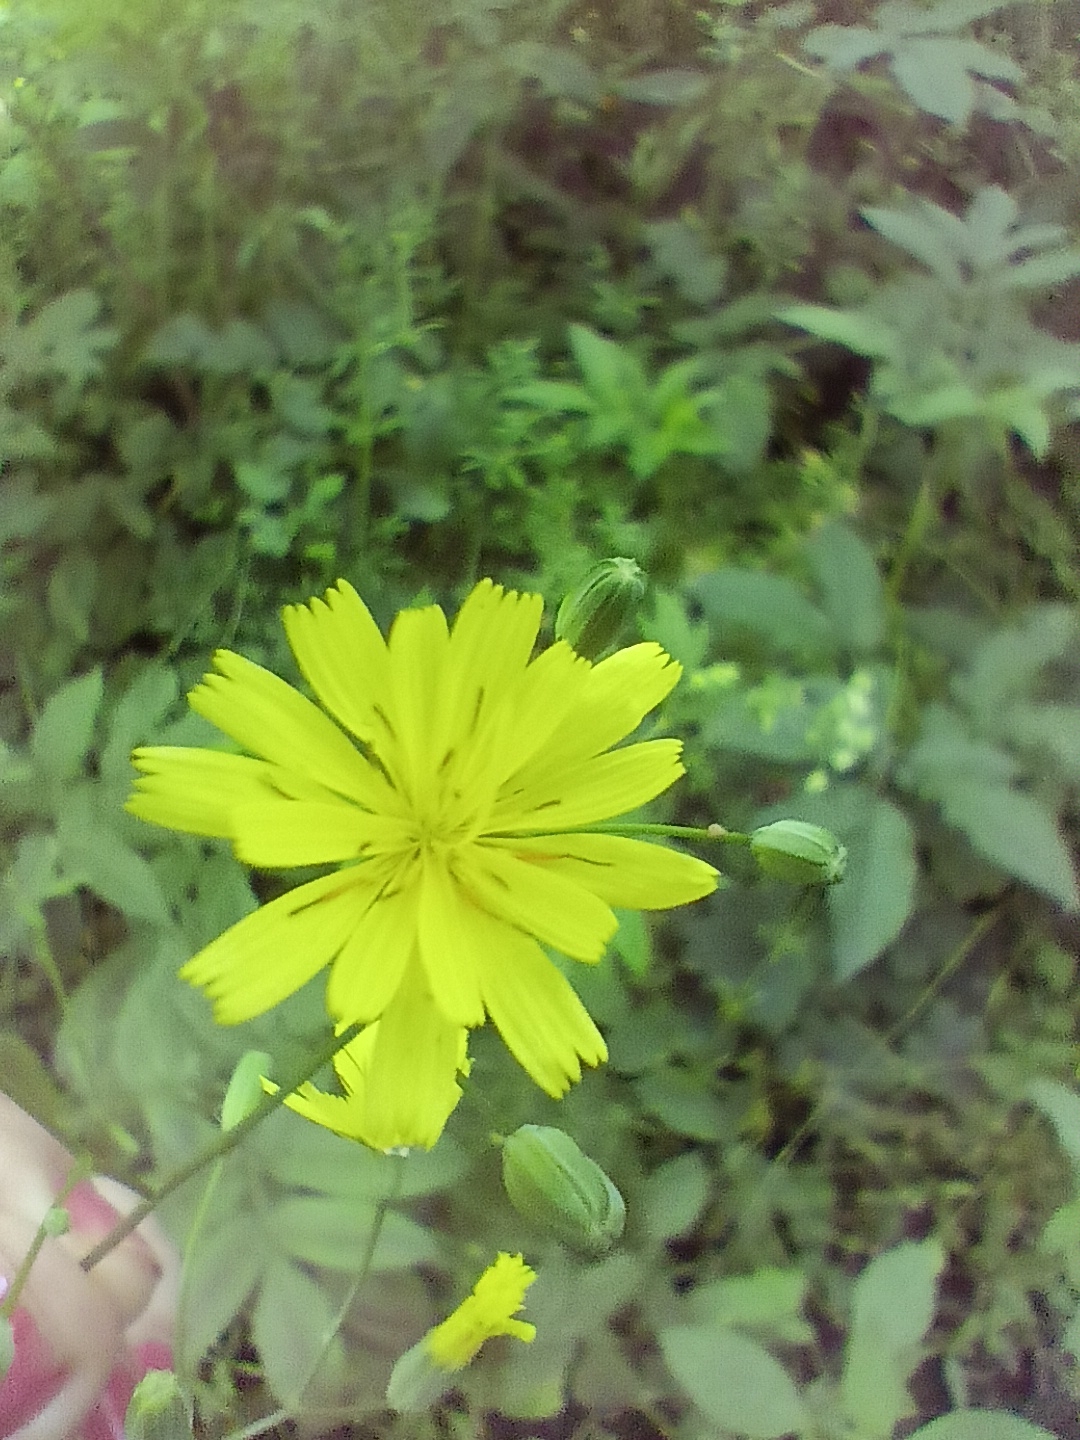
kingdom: Plantae
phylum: Tracheophyta
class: Magnoliopsida
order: Asterales
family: Asteraceae
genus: Lapsana
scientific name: Lapsana communis
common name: Nipplewort
